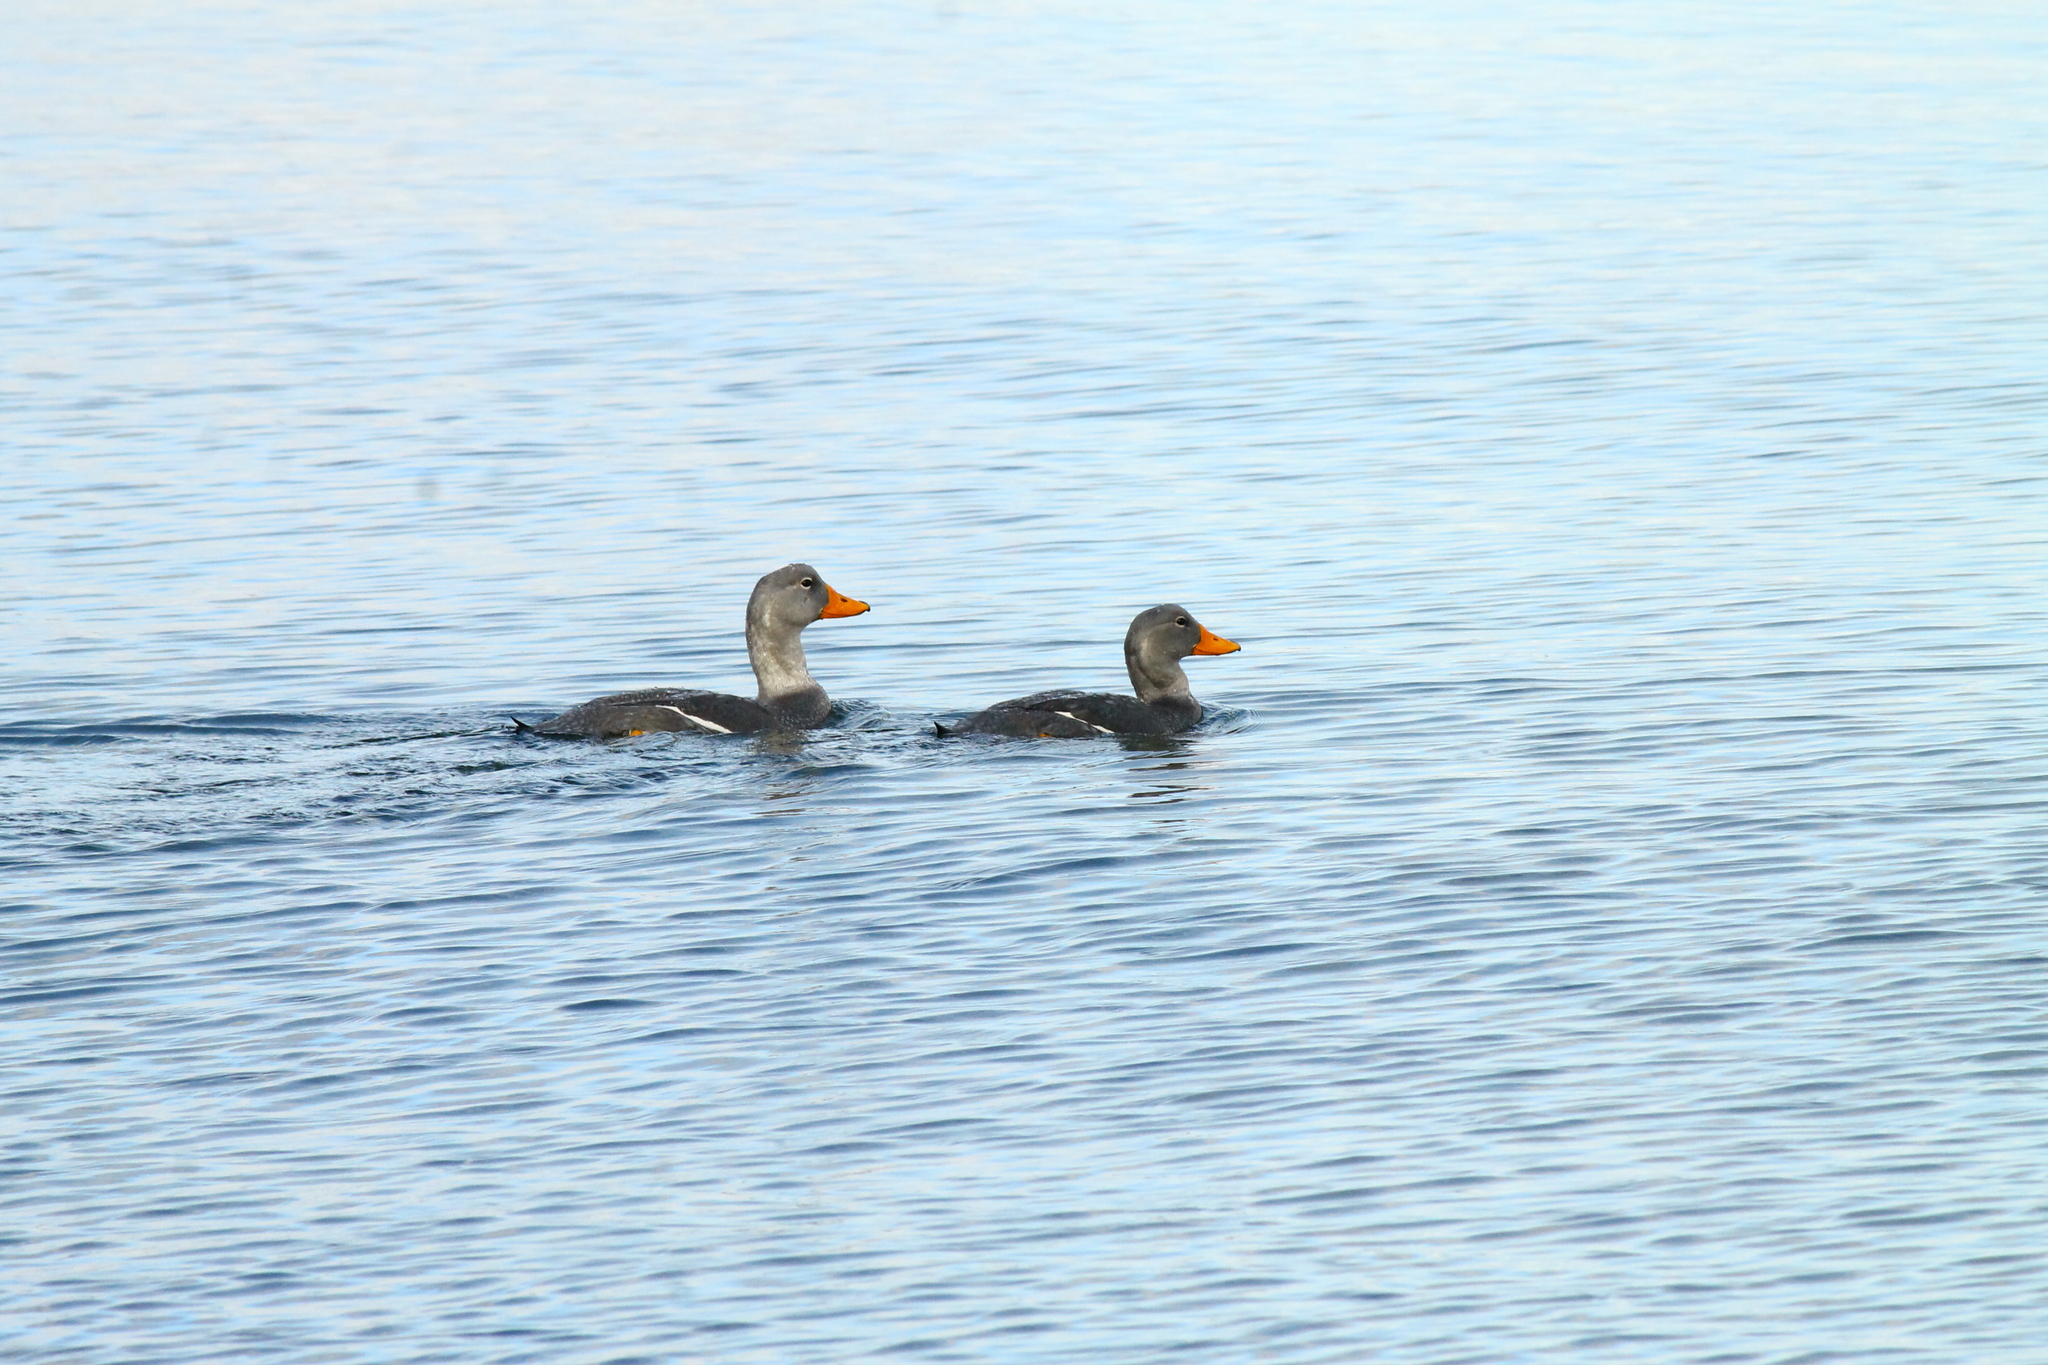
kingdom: Animalia
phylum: Chordata
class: Aves
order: Anseriformes
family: Anatidae
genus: Tachyeres
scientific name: Tachyeres pteneres
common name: Fuegian steamer duck
